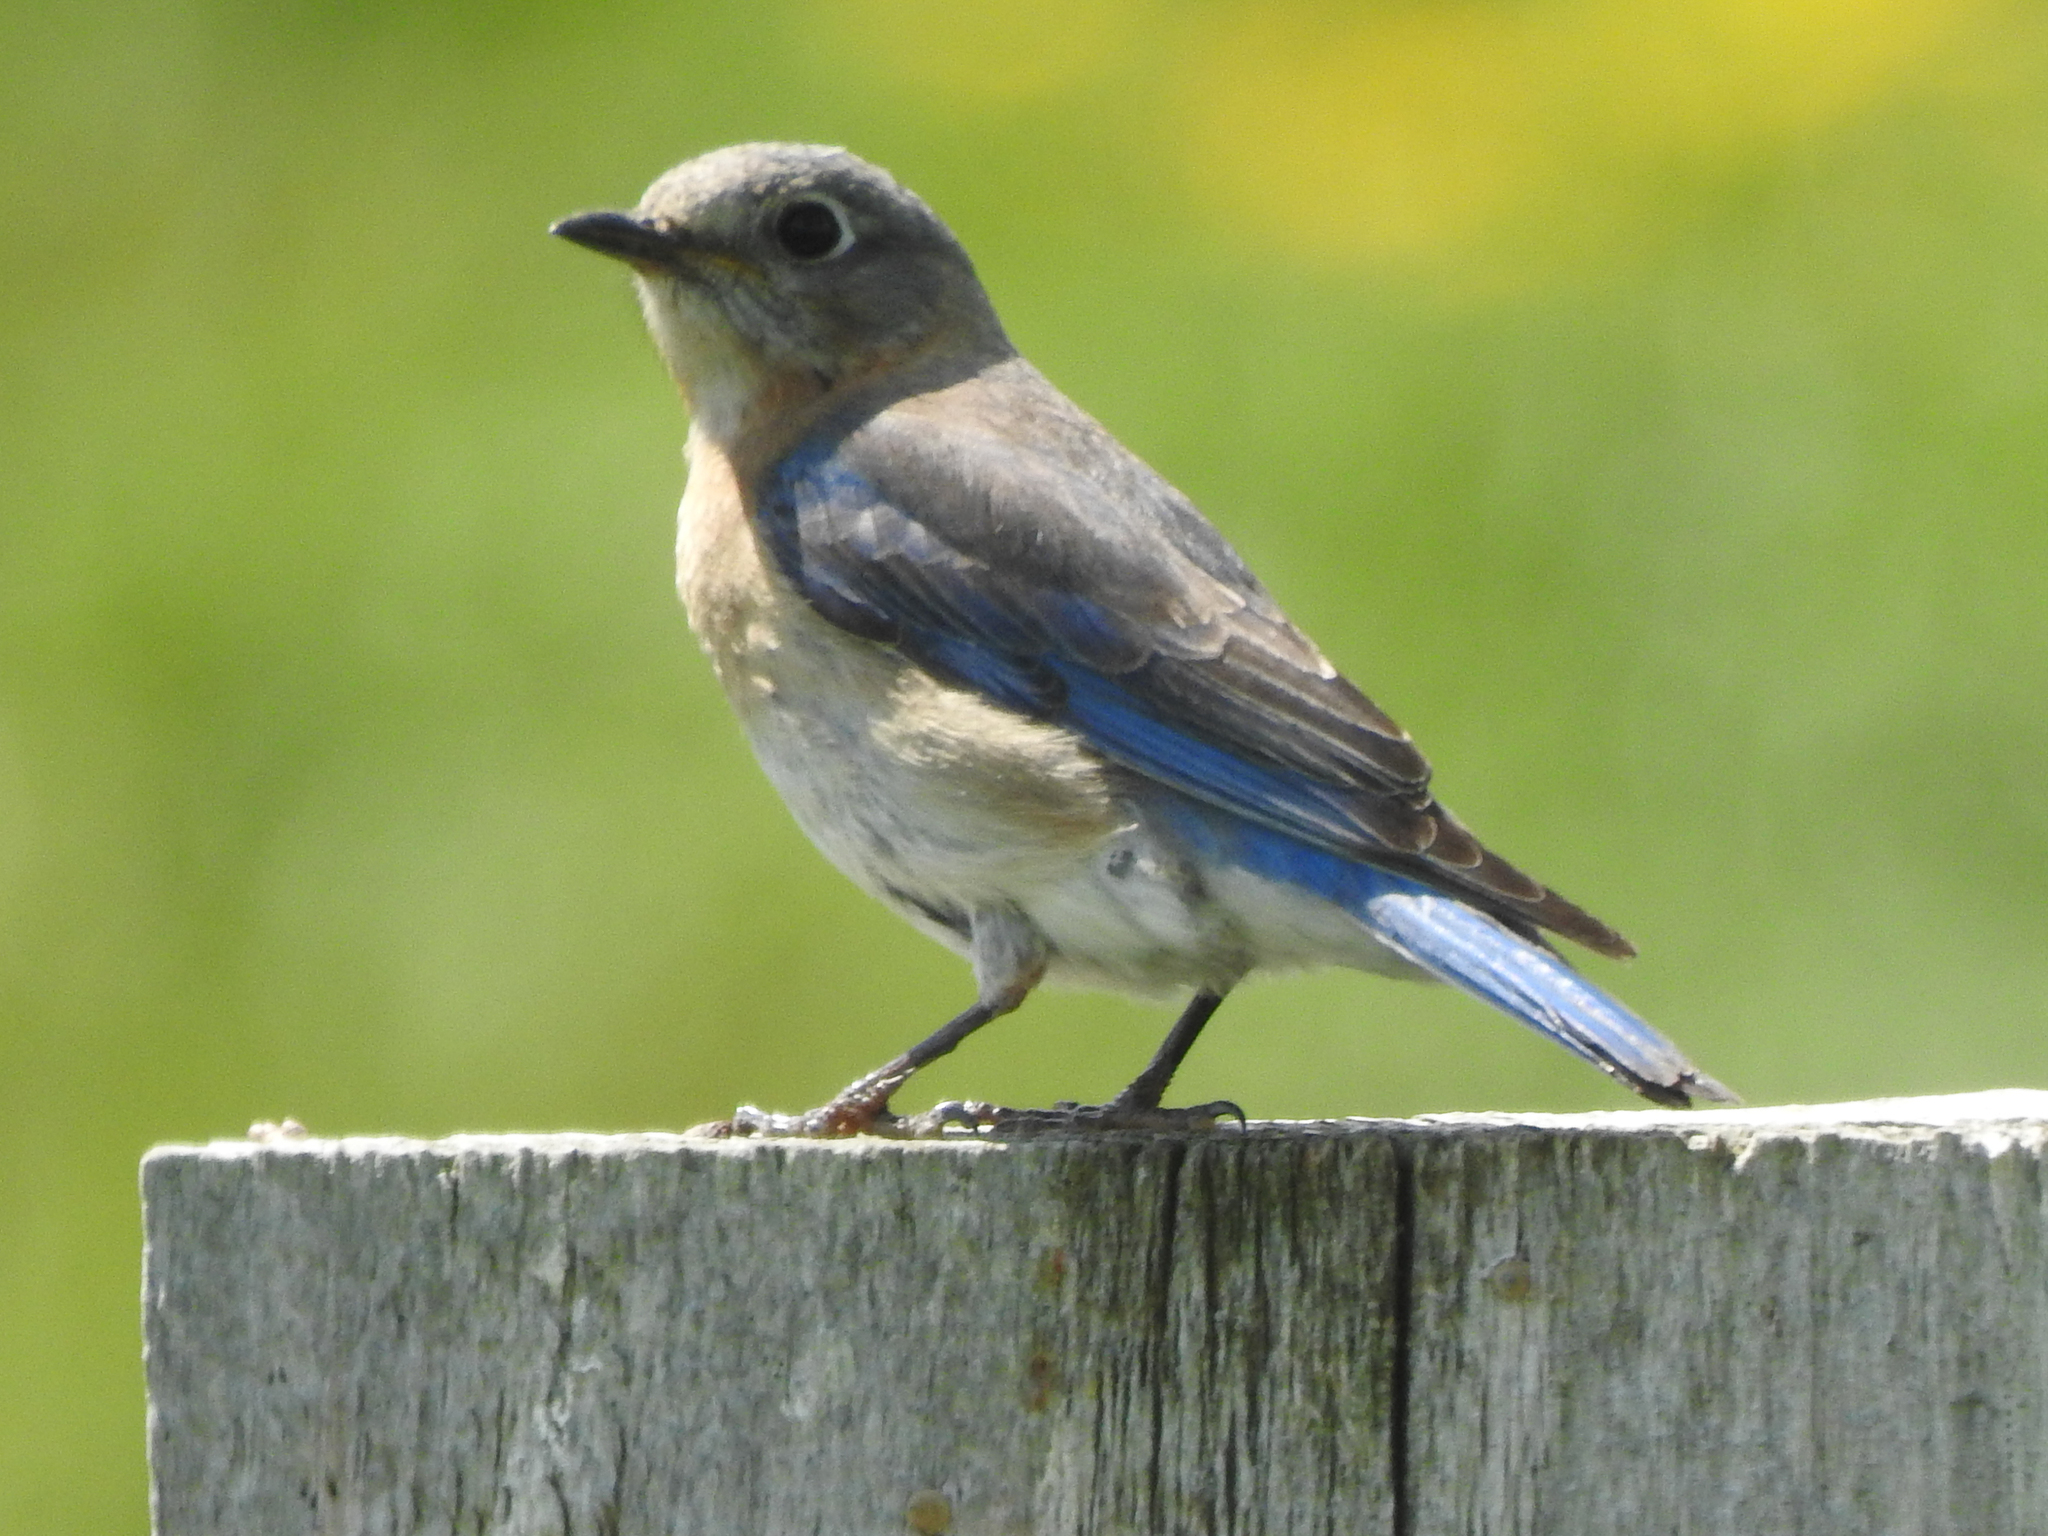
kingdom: Animalia
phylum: Chordata
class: Aves
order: Passeriformes
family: Turdidae
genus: Sialia
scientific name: Sialia sialis
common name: Eastern bluebird
